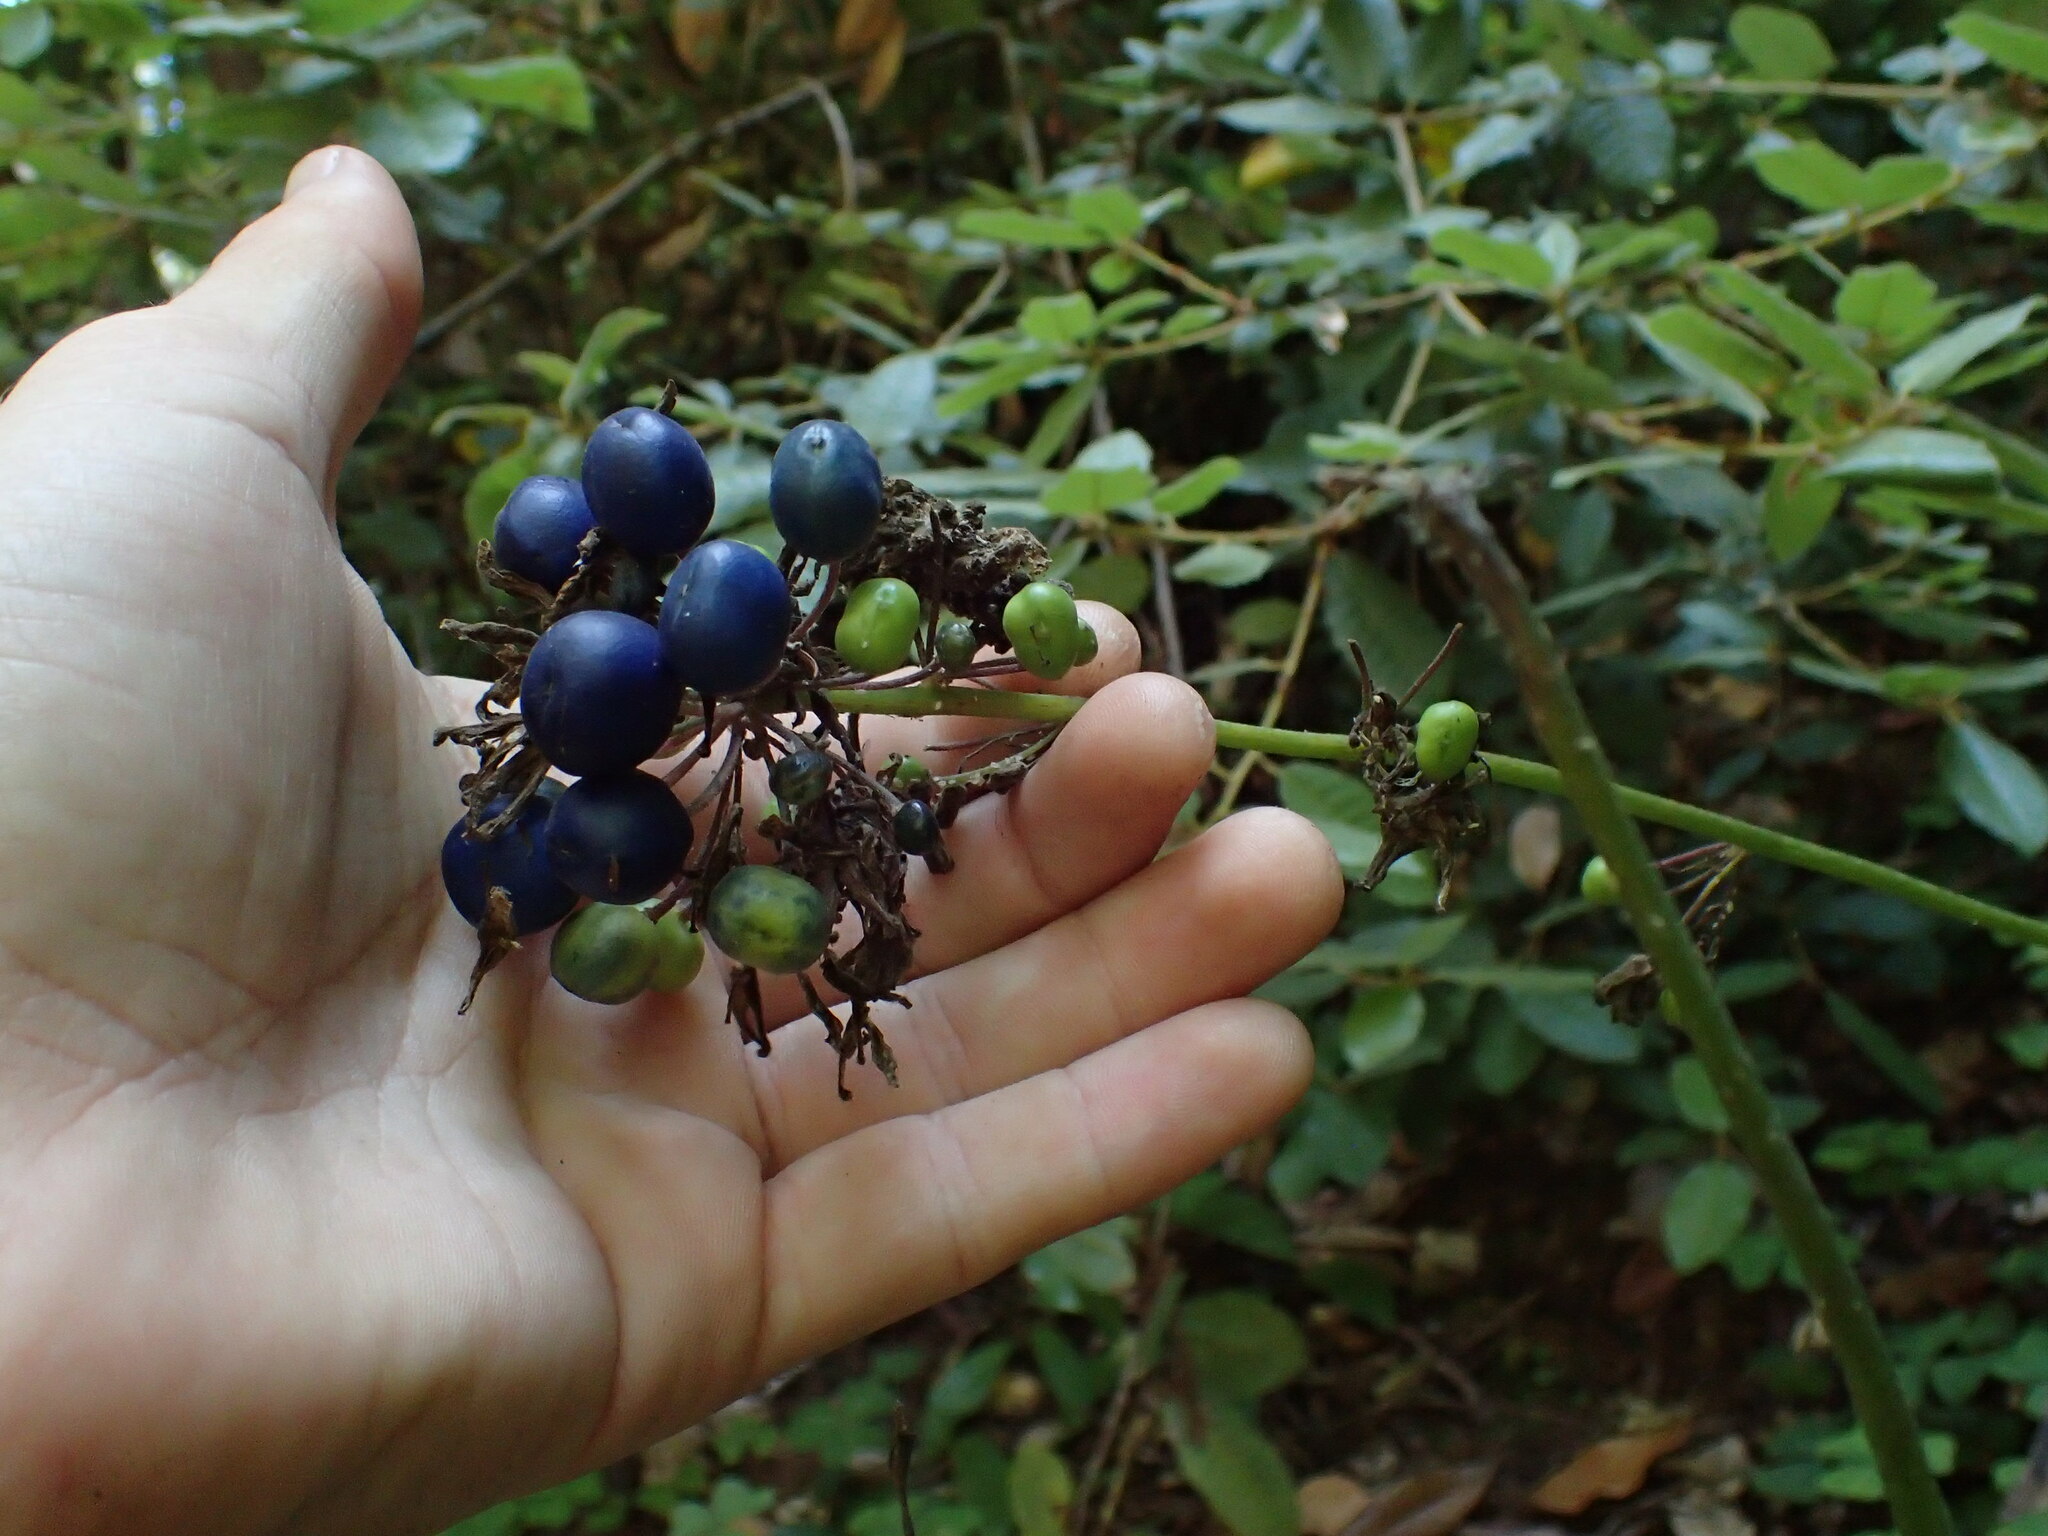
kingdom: Plantae
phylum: Tracheophyta
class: Liliopsida
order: Liliales
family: Liliaceae
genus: Clintonia
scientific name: Clintonia andrewsiana
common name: Red clintonia
